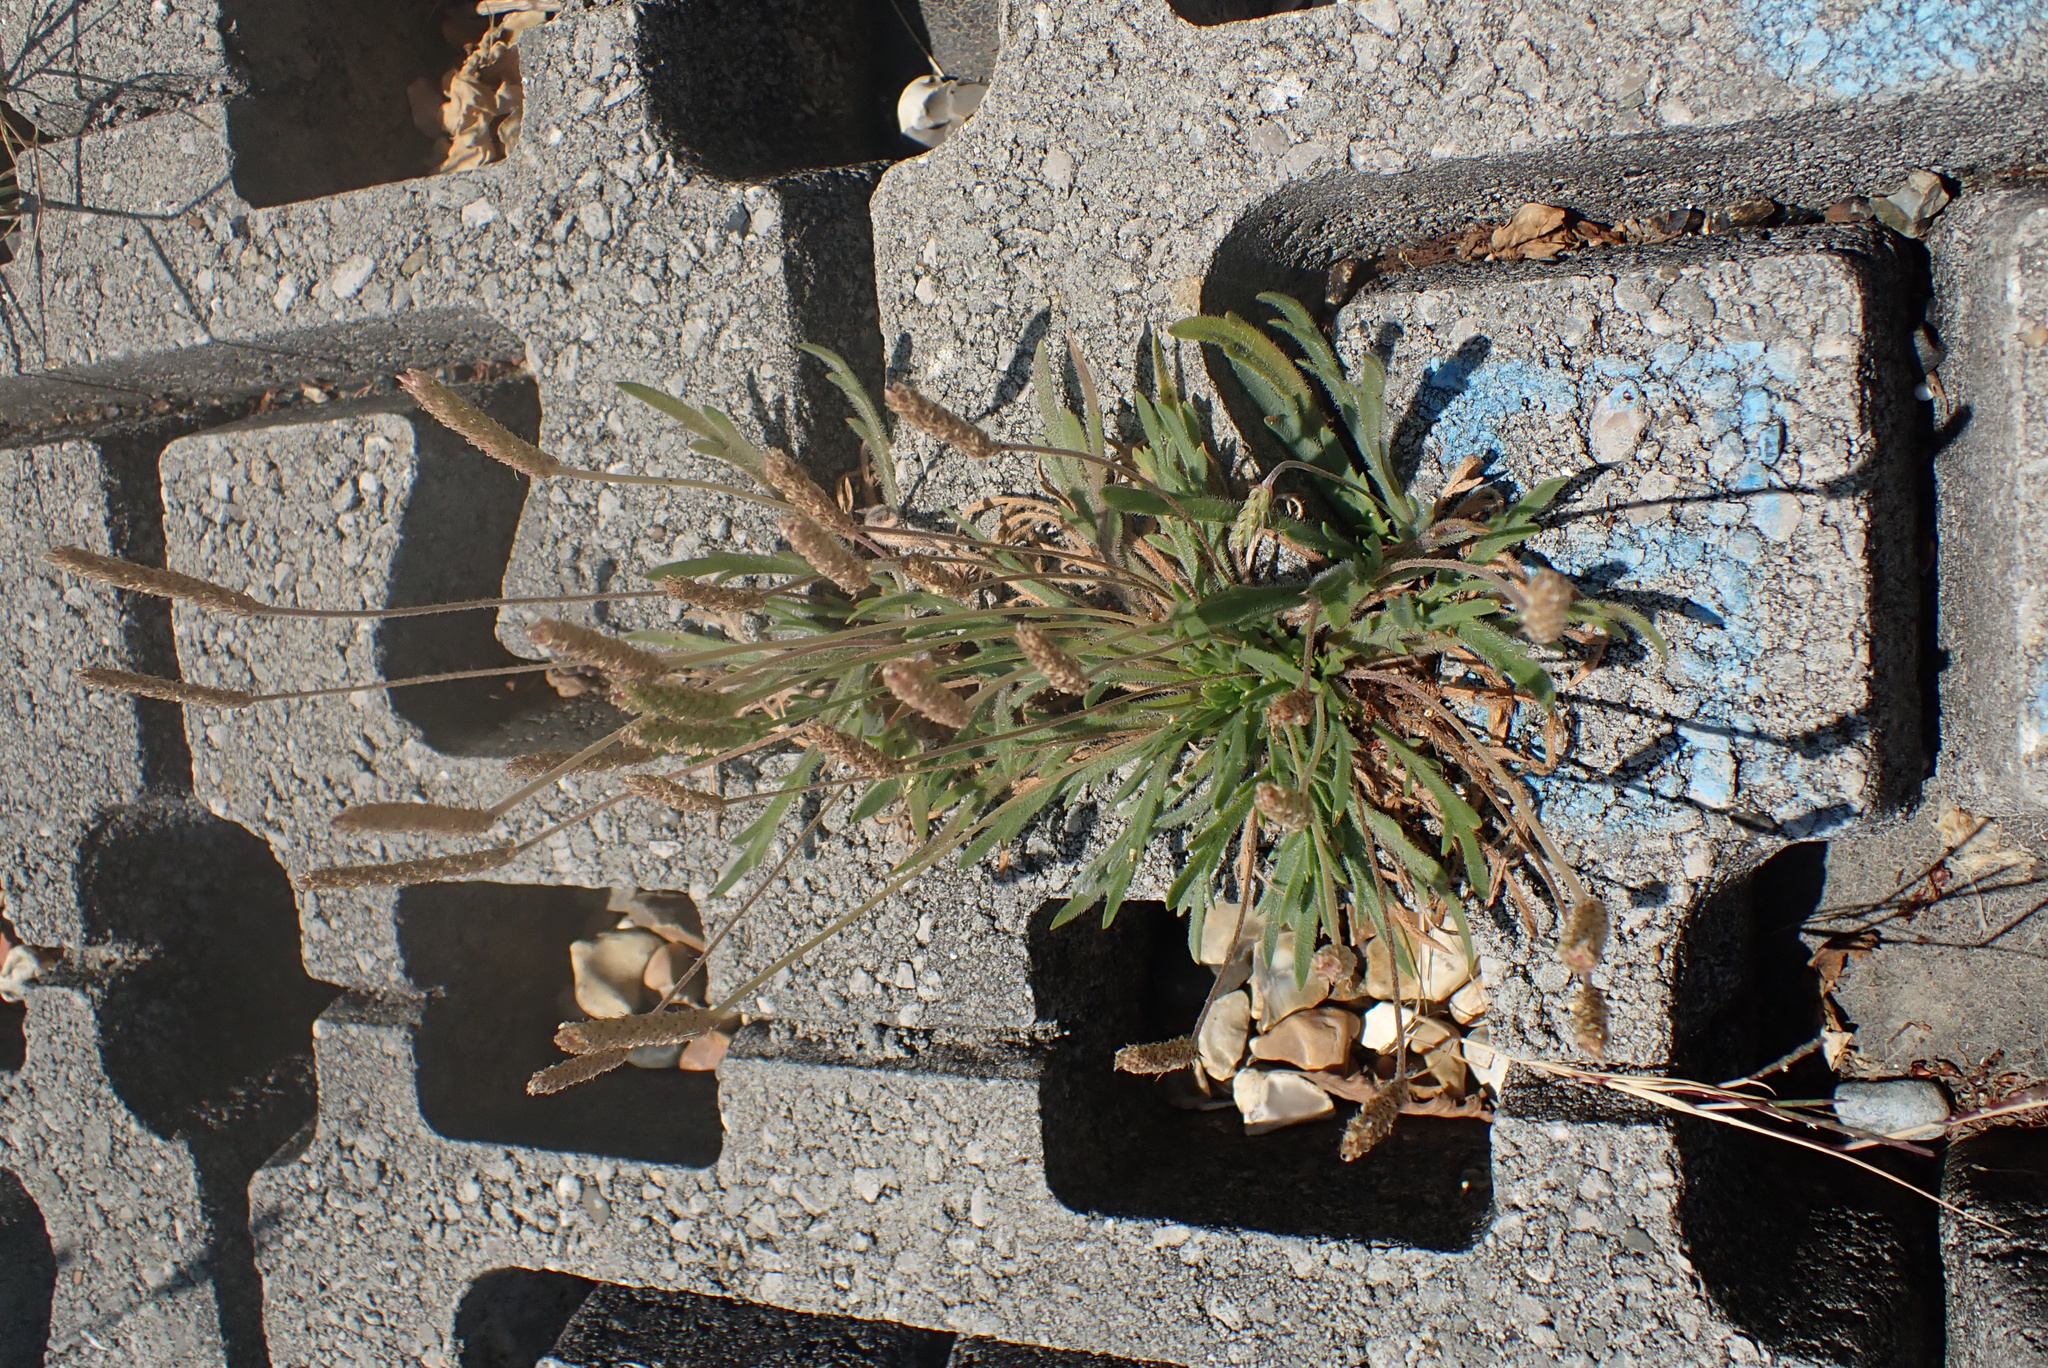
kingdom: Plantae
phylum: Tracheophyta
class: Magnoliopsida
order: Lamiales
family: Plantaginaceae
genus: Plantago
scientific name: Plantago coronopus
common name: Buck's-horn plantain
